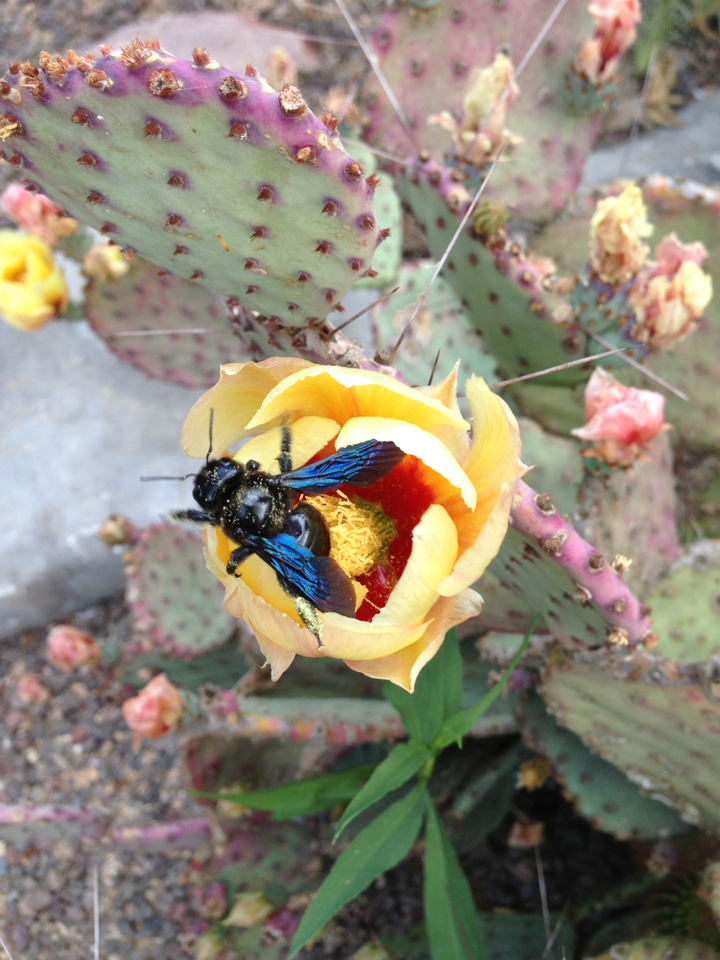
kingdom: Animalia
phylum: Arthropoda
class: Insecta
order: Hymenoptera
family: Apidae
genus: Xylocopa
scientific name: Xylocopa violacea
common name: Violet carpenter bee
